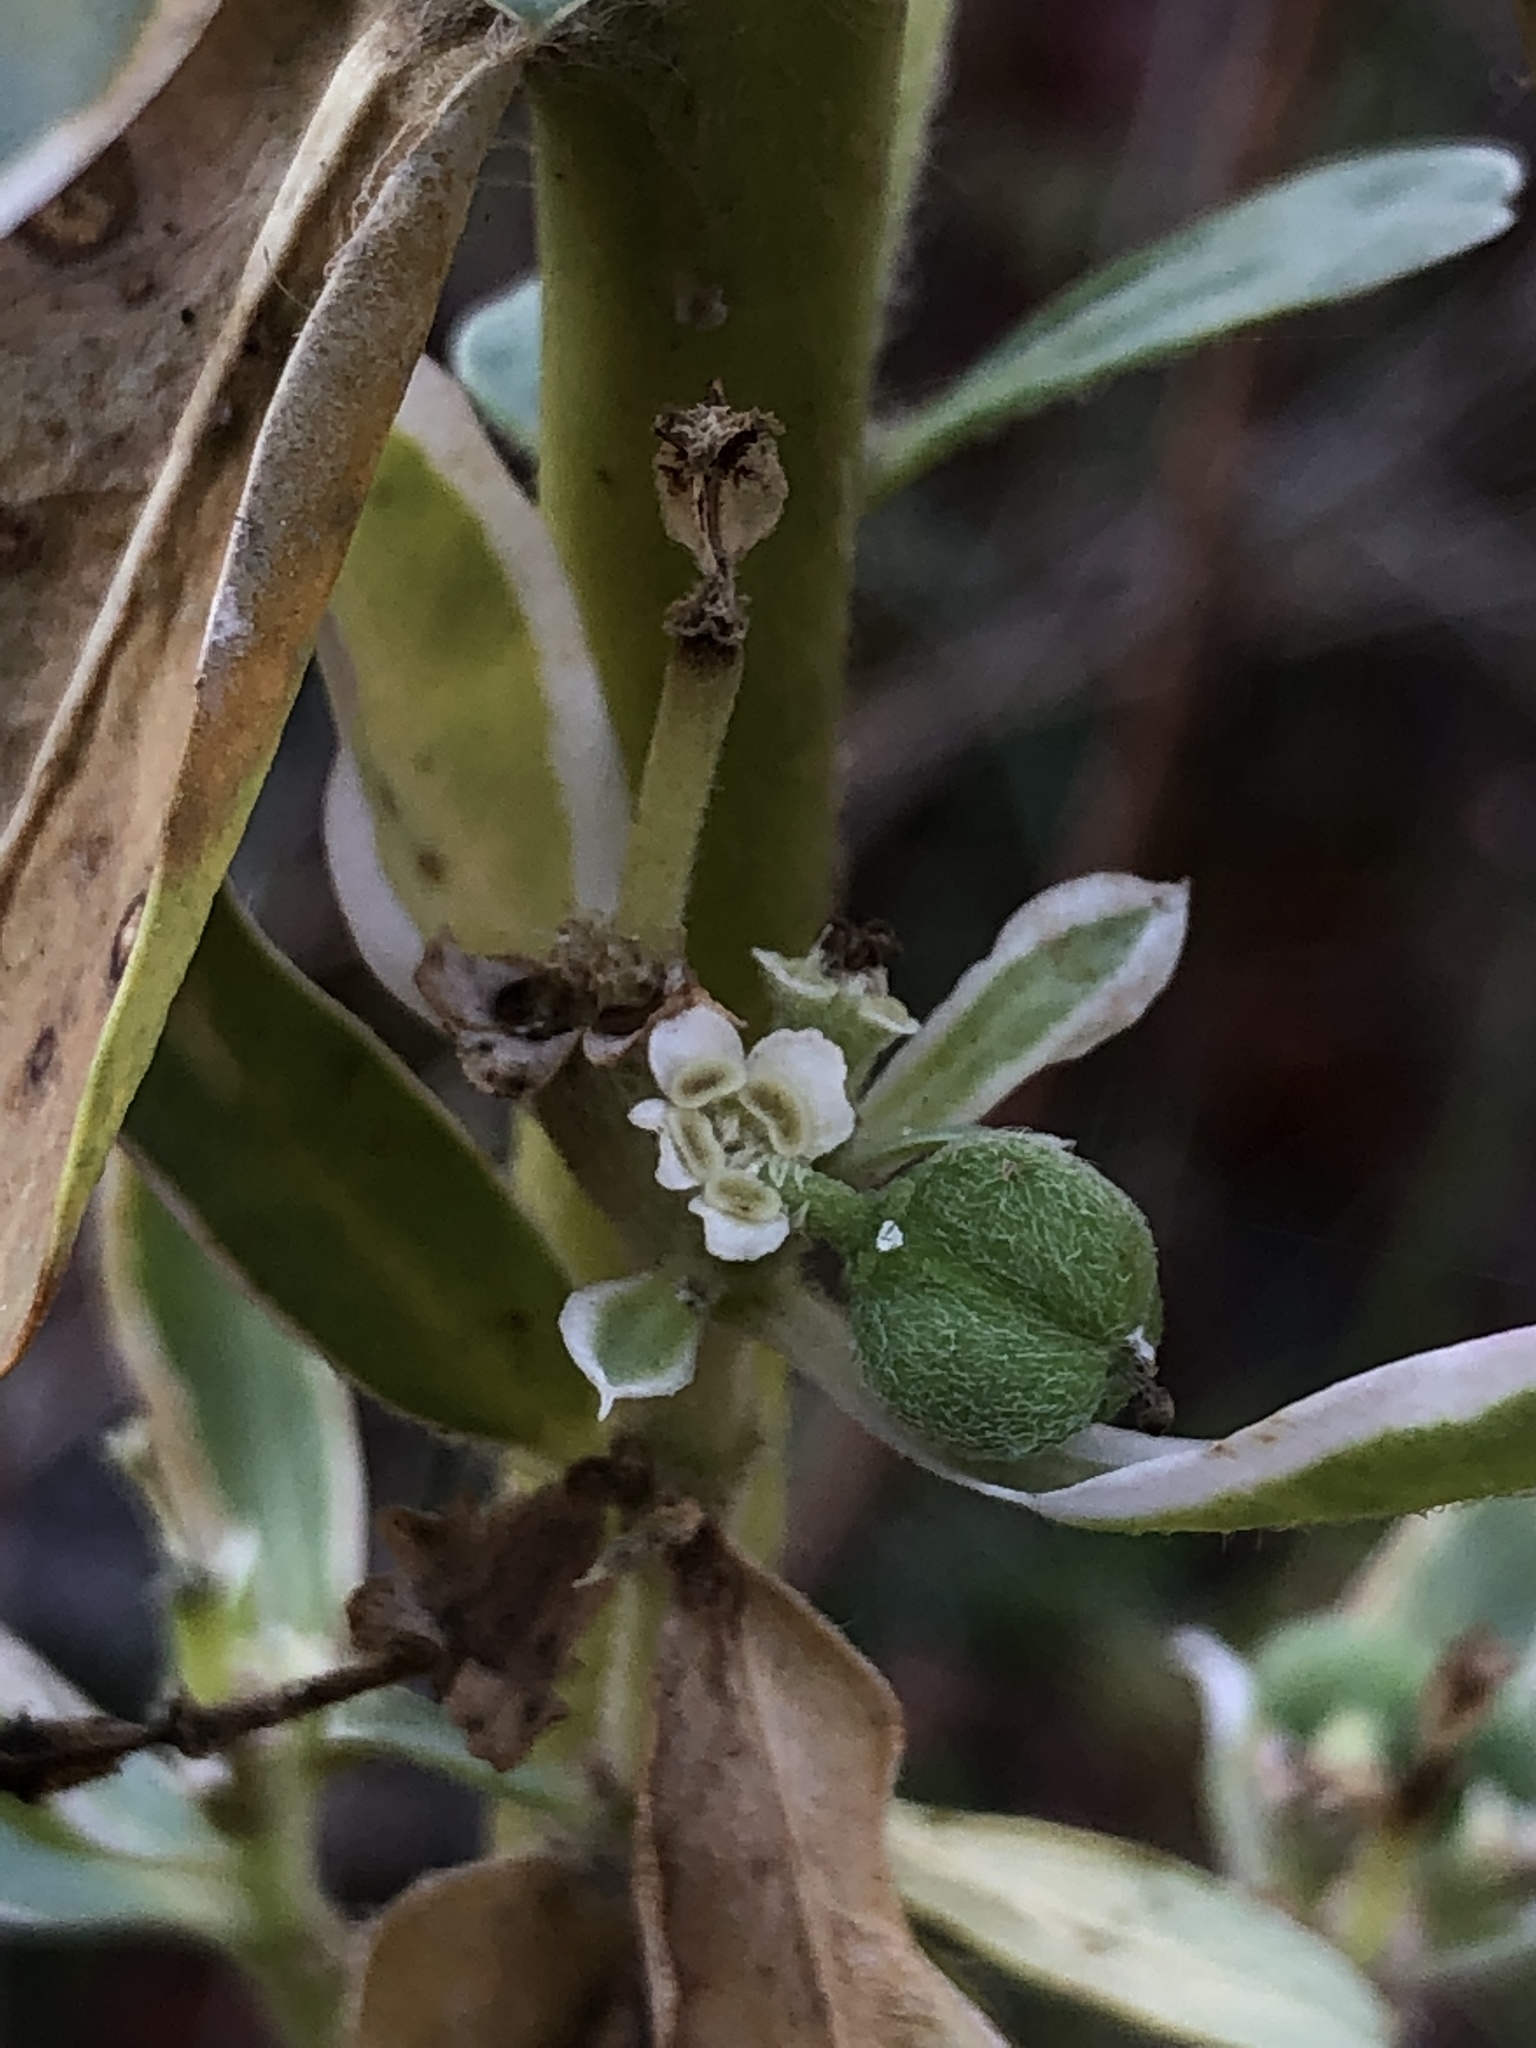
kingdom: Plantae
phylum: Tracheophyta
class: Magnoliopsida
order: Malpighiales
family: Euphorbiaceae
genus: Euphorbia
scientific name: Euphorbia marginata
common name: Ghostweed
